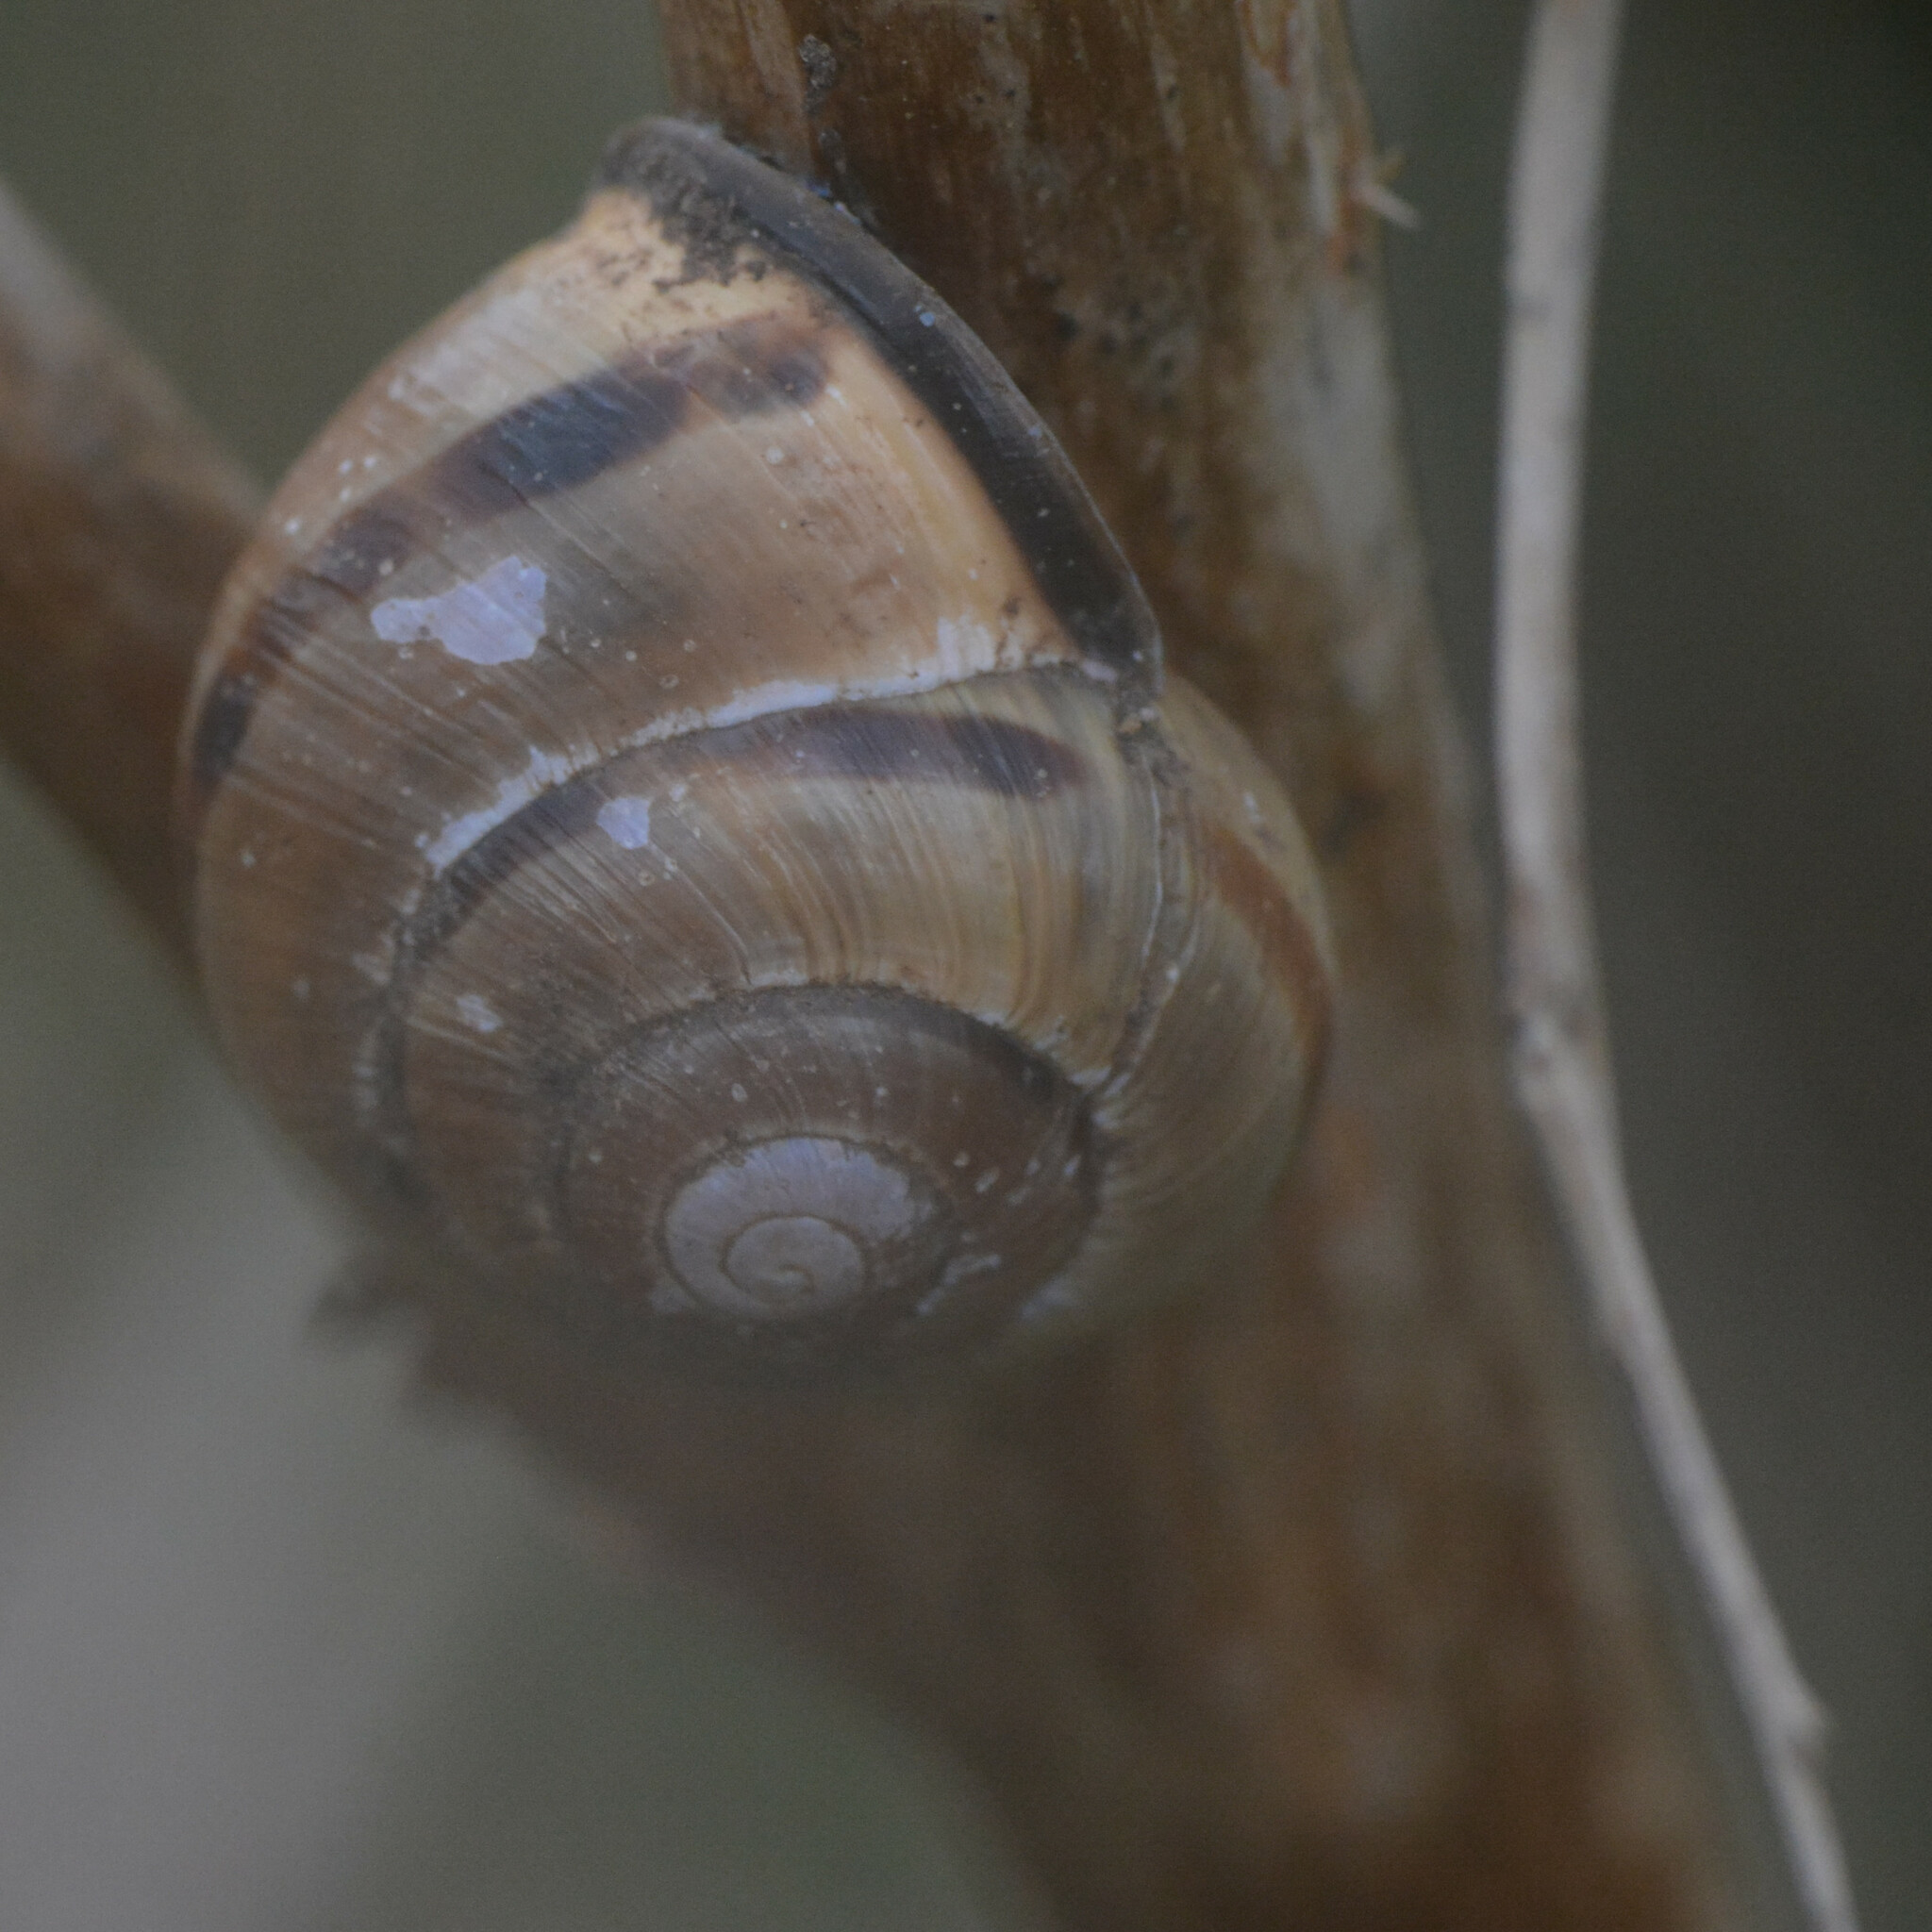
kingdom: Animalia
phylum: Mollusca
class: Gastropoda
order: Stylommatophora
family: Helicidae
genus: Cepaea
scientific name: Cepaea nemoralis
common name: Grovesnail
